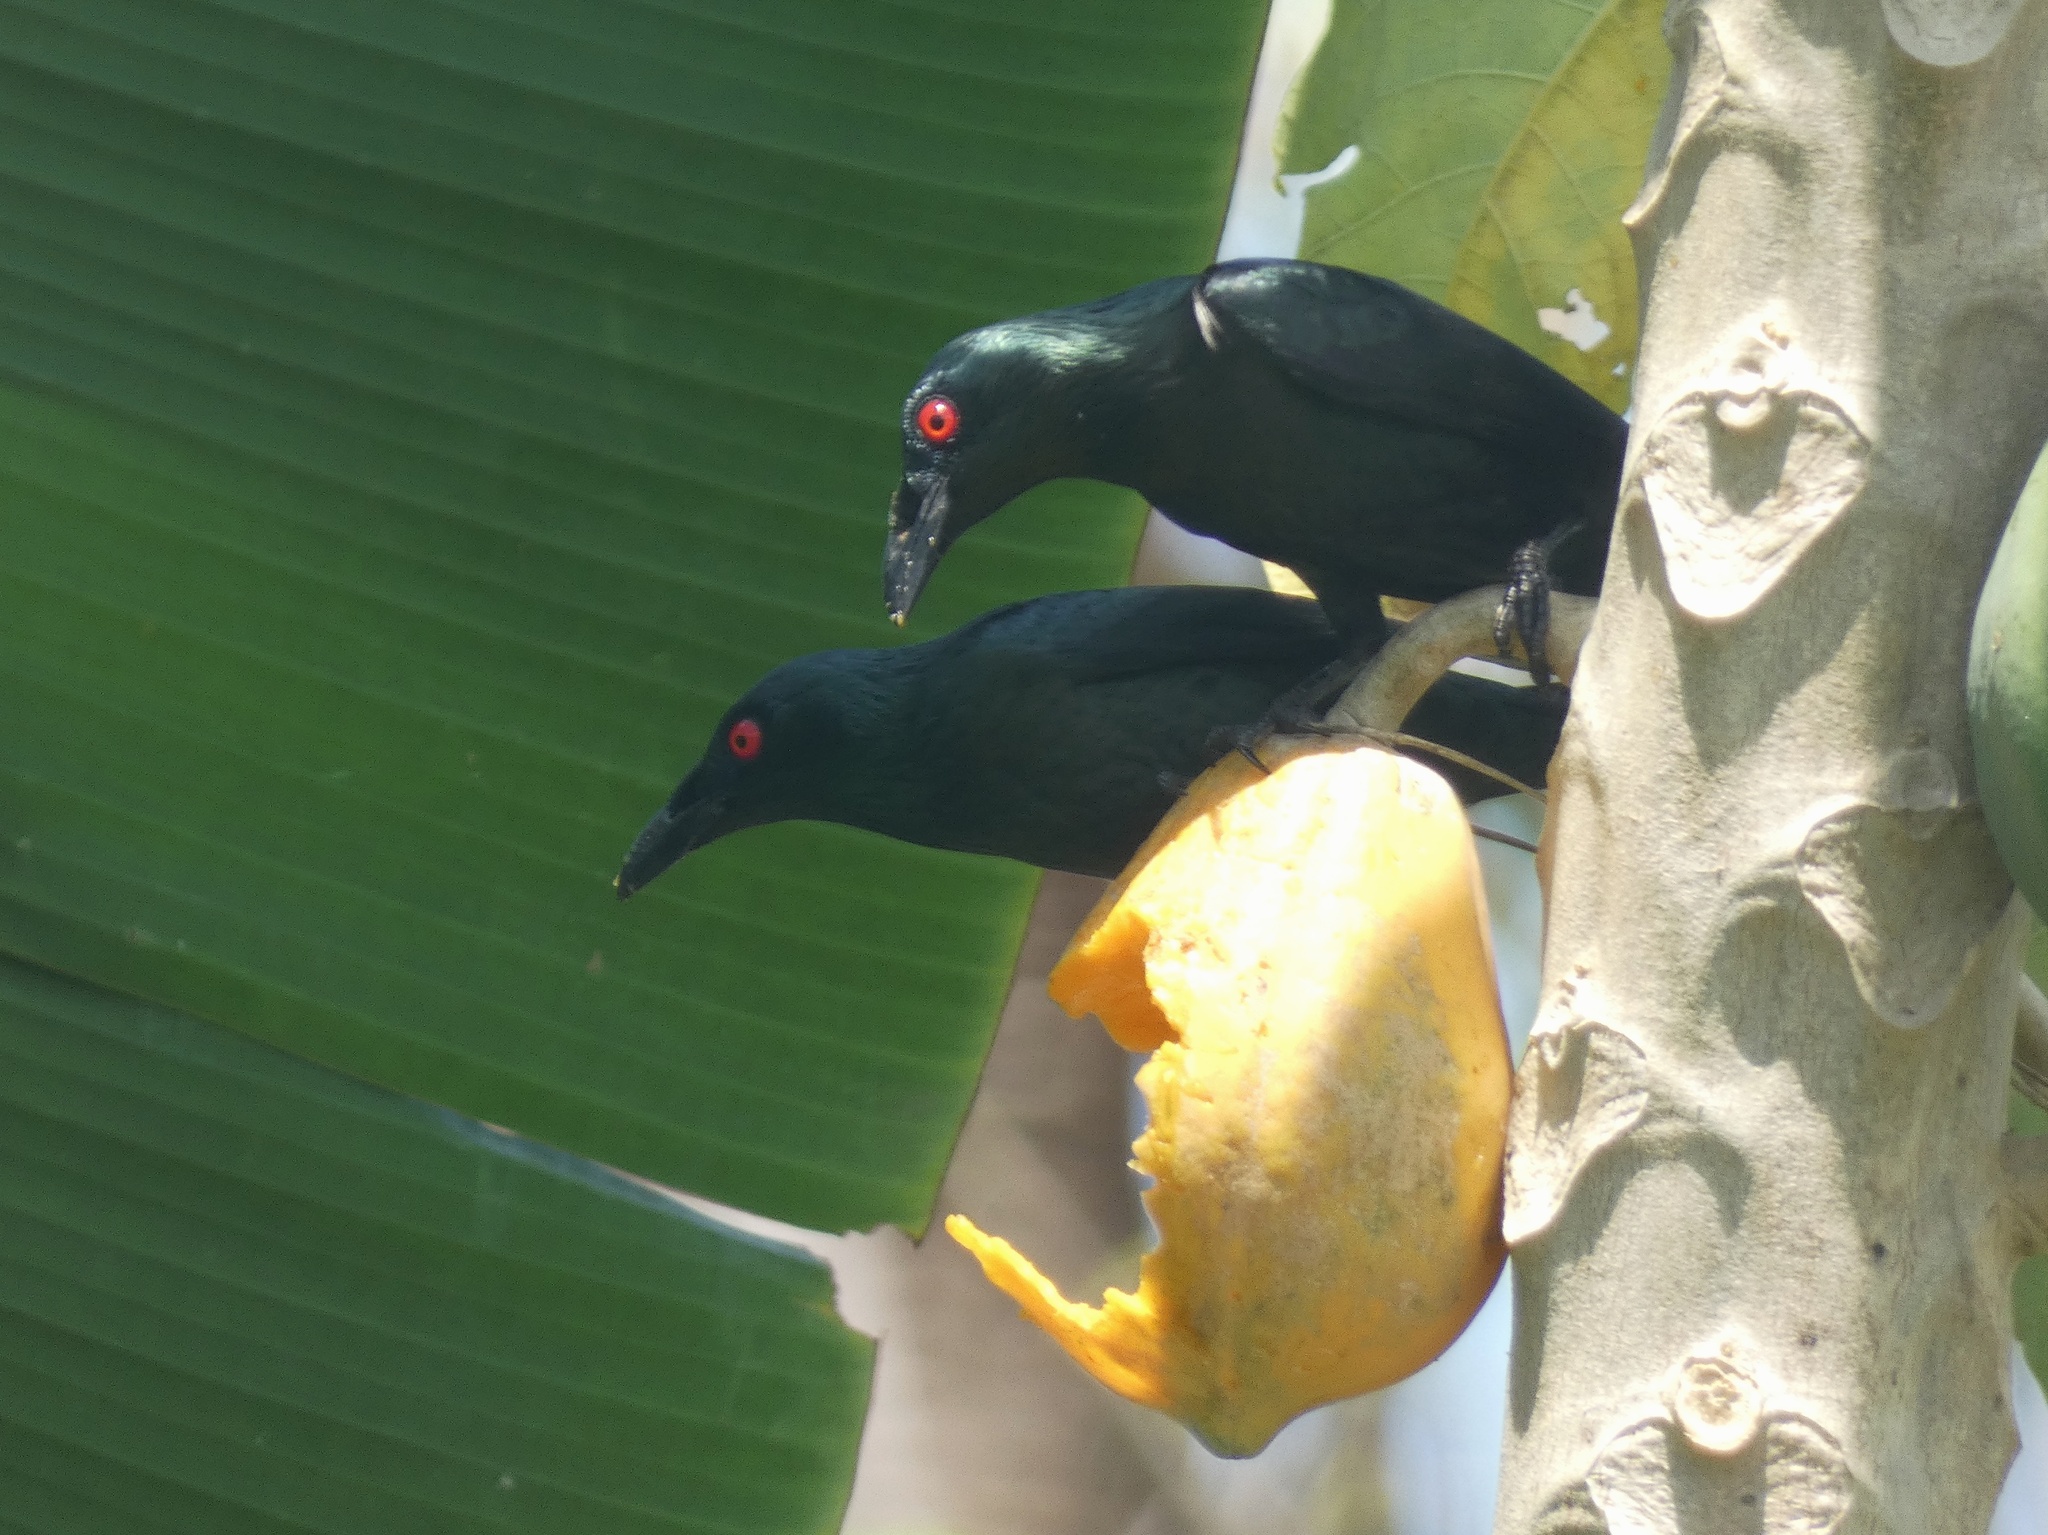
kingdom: Animalia
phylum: Chordata
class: Aves
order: Passeriformes
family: Sturnidae
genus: Aplonis
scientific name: Aplonis panayensis
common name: Asian glossy starling
